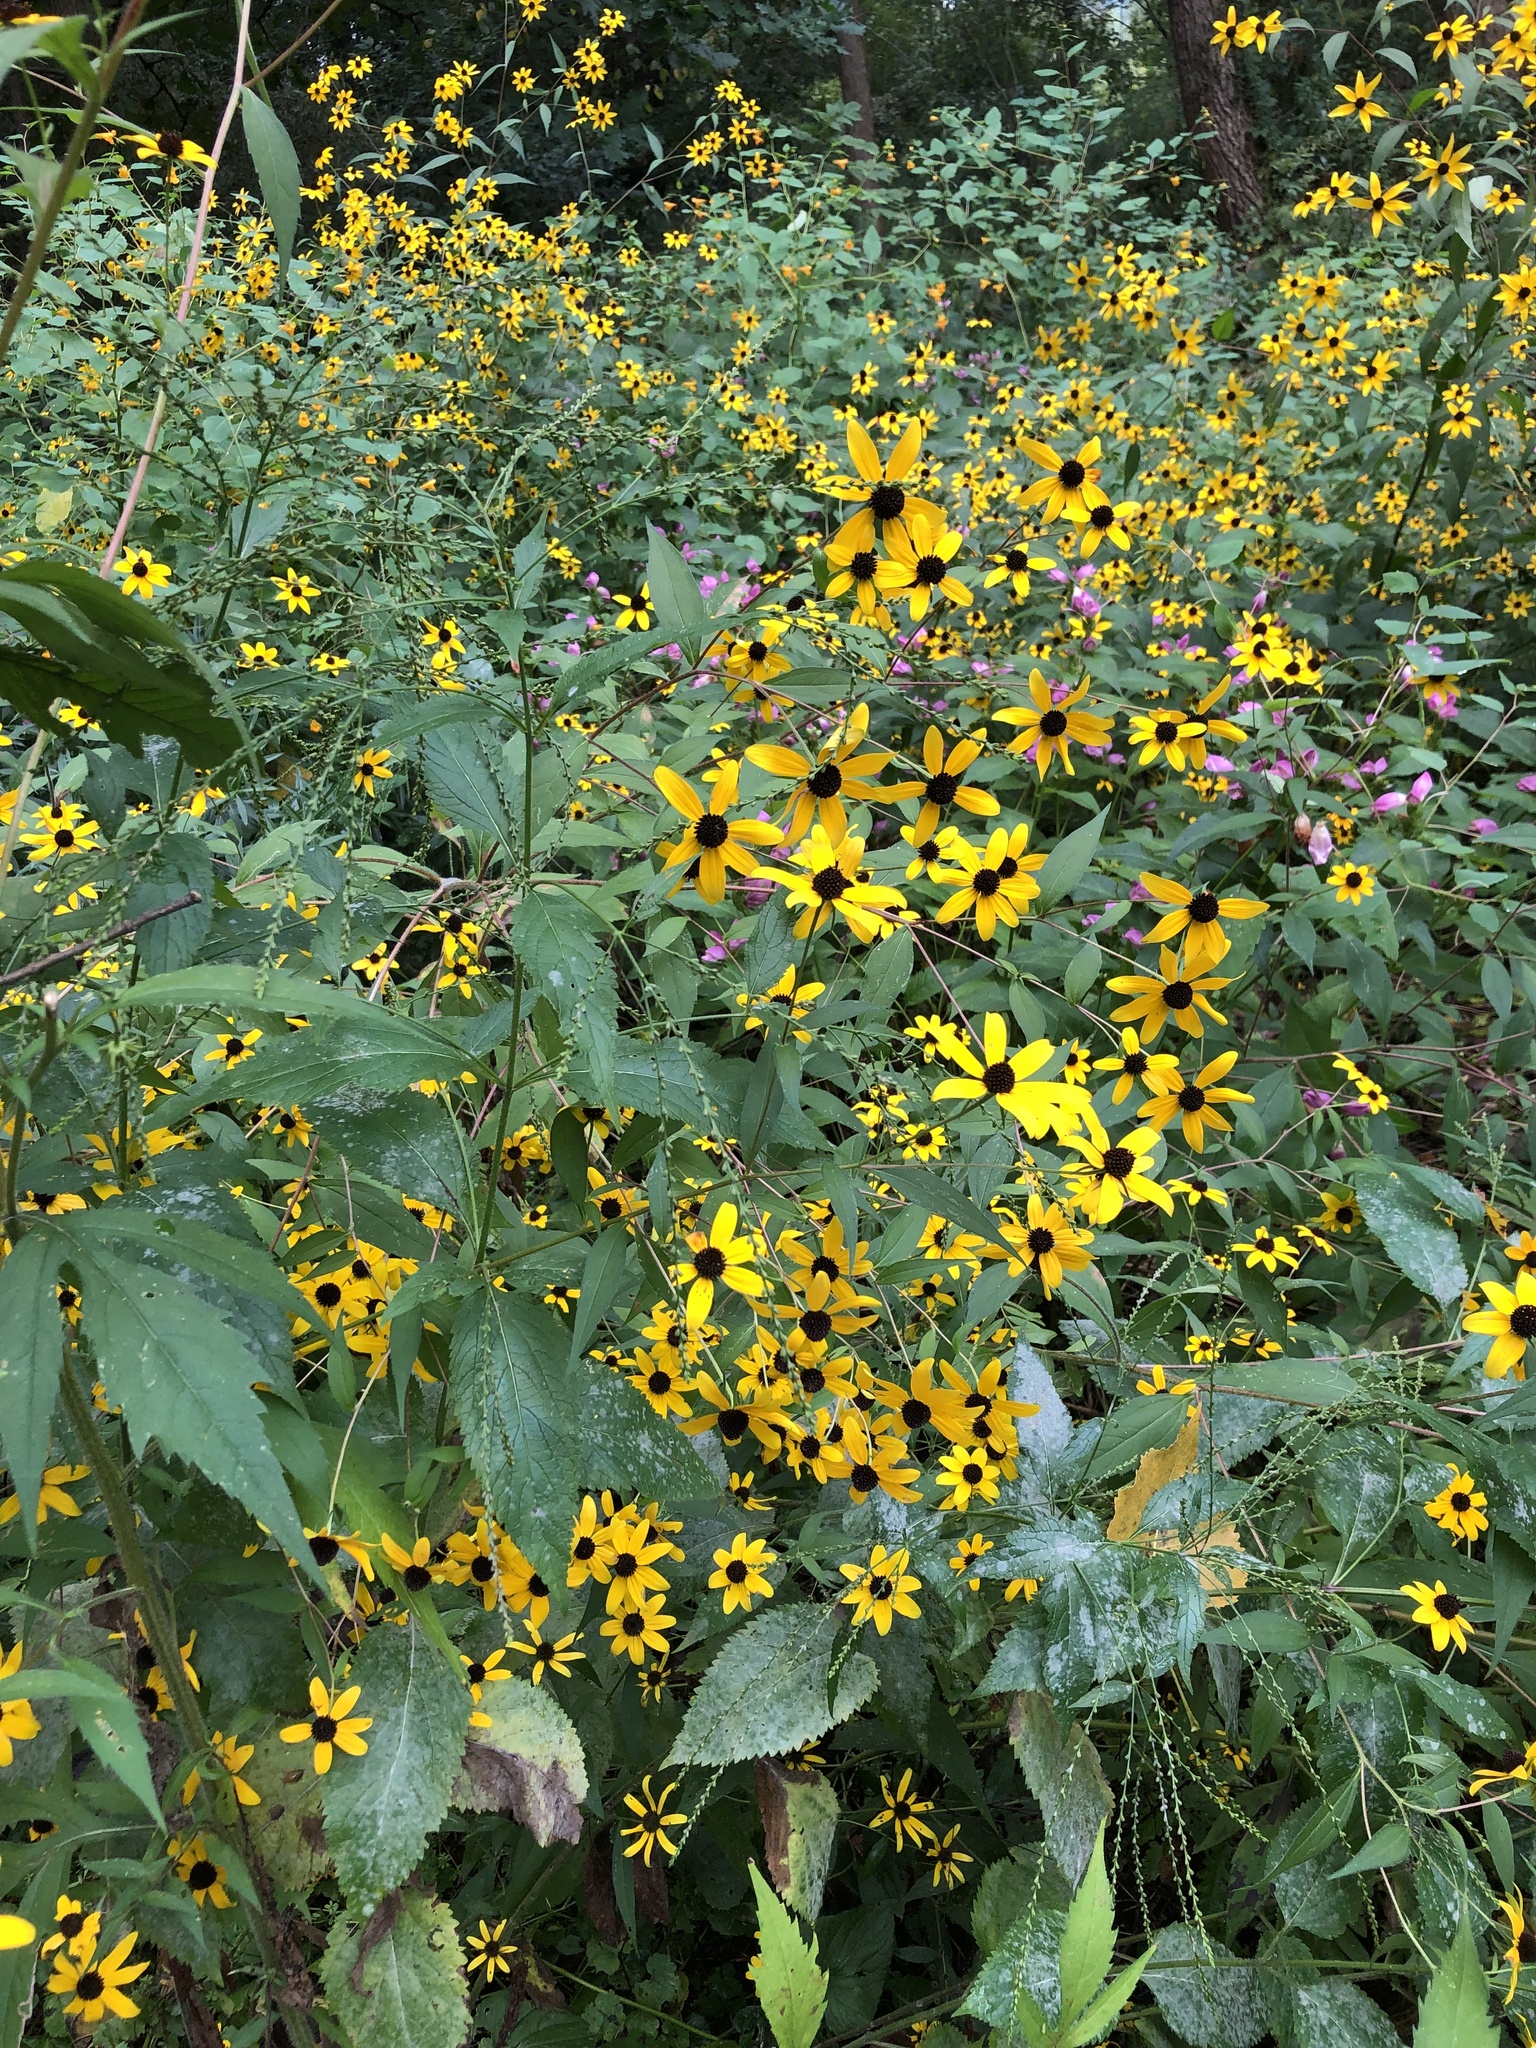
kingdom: Plantae
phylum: Tracheophyta
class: Magnoliopsida
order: Asterales
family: Asteraceae
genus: Rudbeckia
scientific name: Rudbeckia triloba
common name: Thin-leaved coneflower
